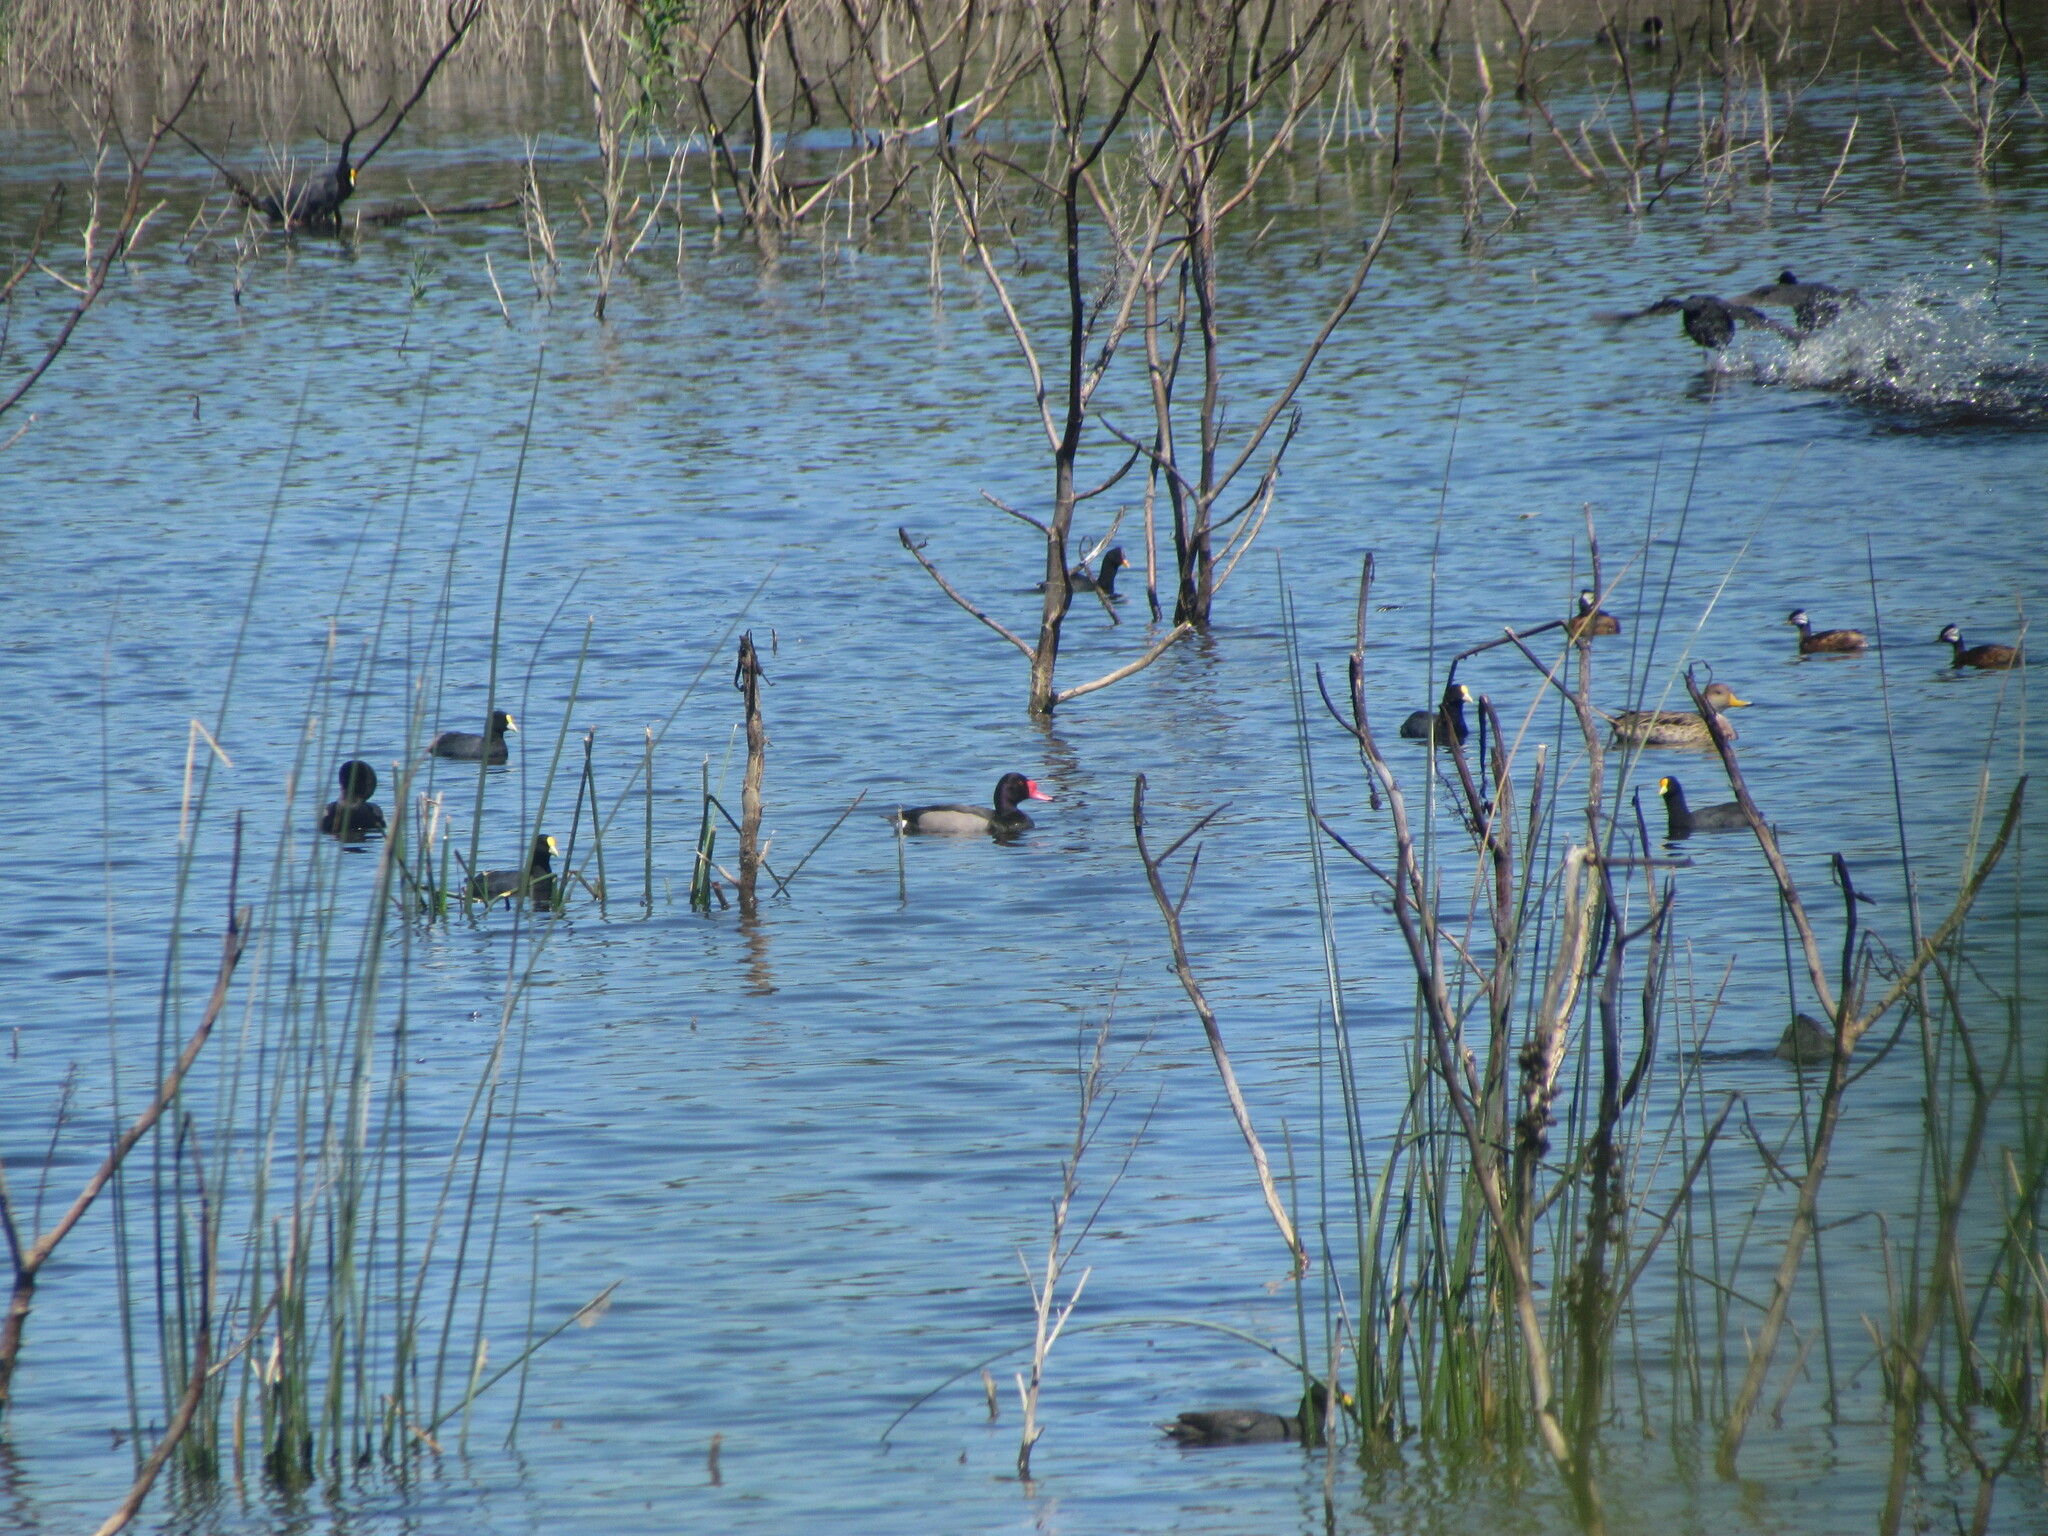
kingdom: Animalia
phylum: Chordata
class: Aves
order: Anseriformes
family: Anatidae
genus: Netta
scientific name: Netta peposaca
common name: Rosy-billed pochard
